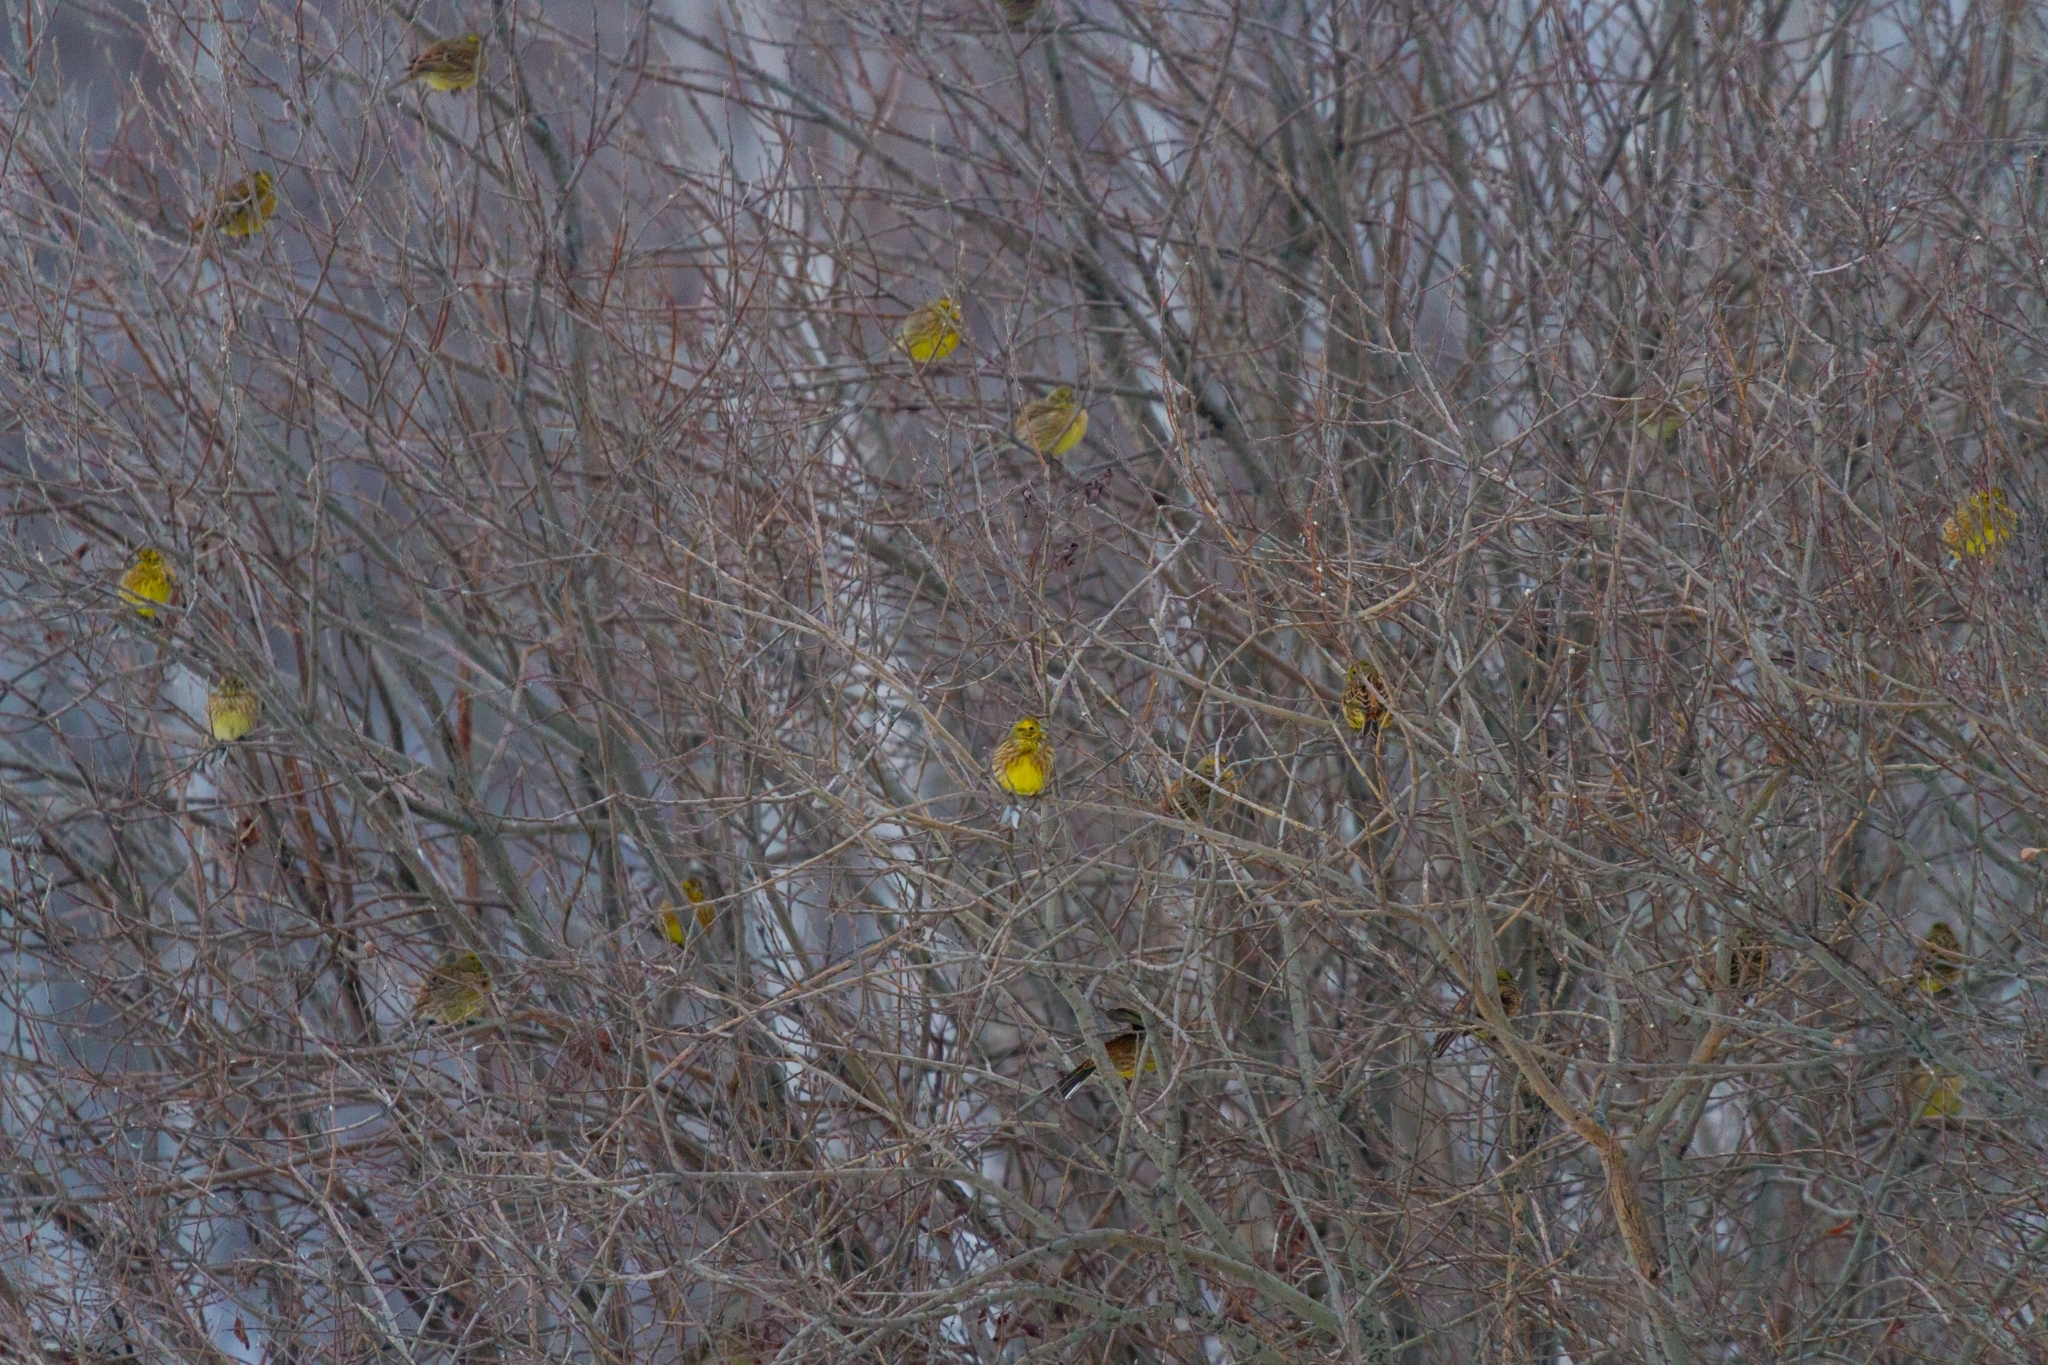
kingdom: Animalia
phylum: Chordata
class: Aves
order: Passeriformes
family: Emberizidae
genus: Emberiza
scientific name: Emberiza citrinella
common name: Yellowhammer
